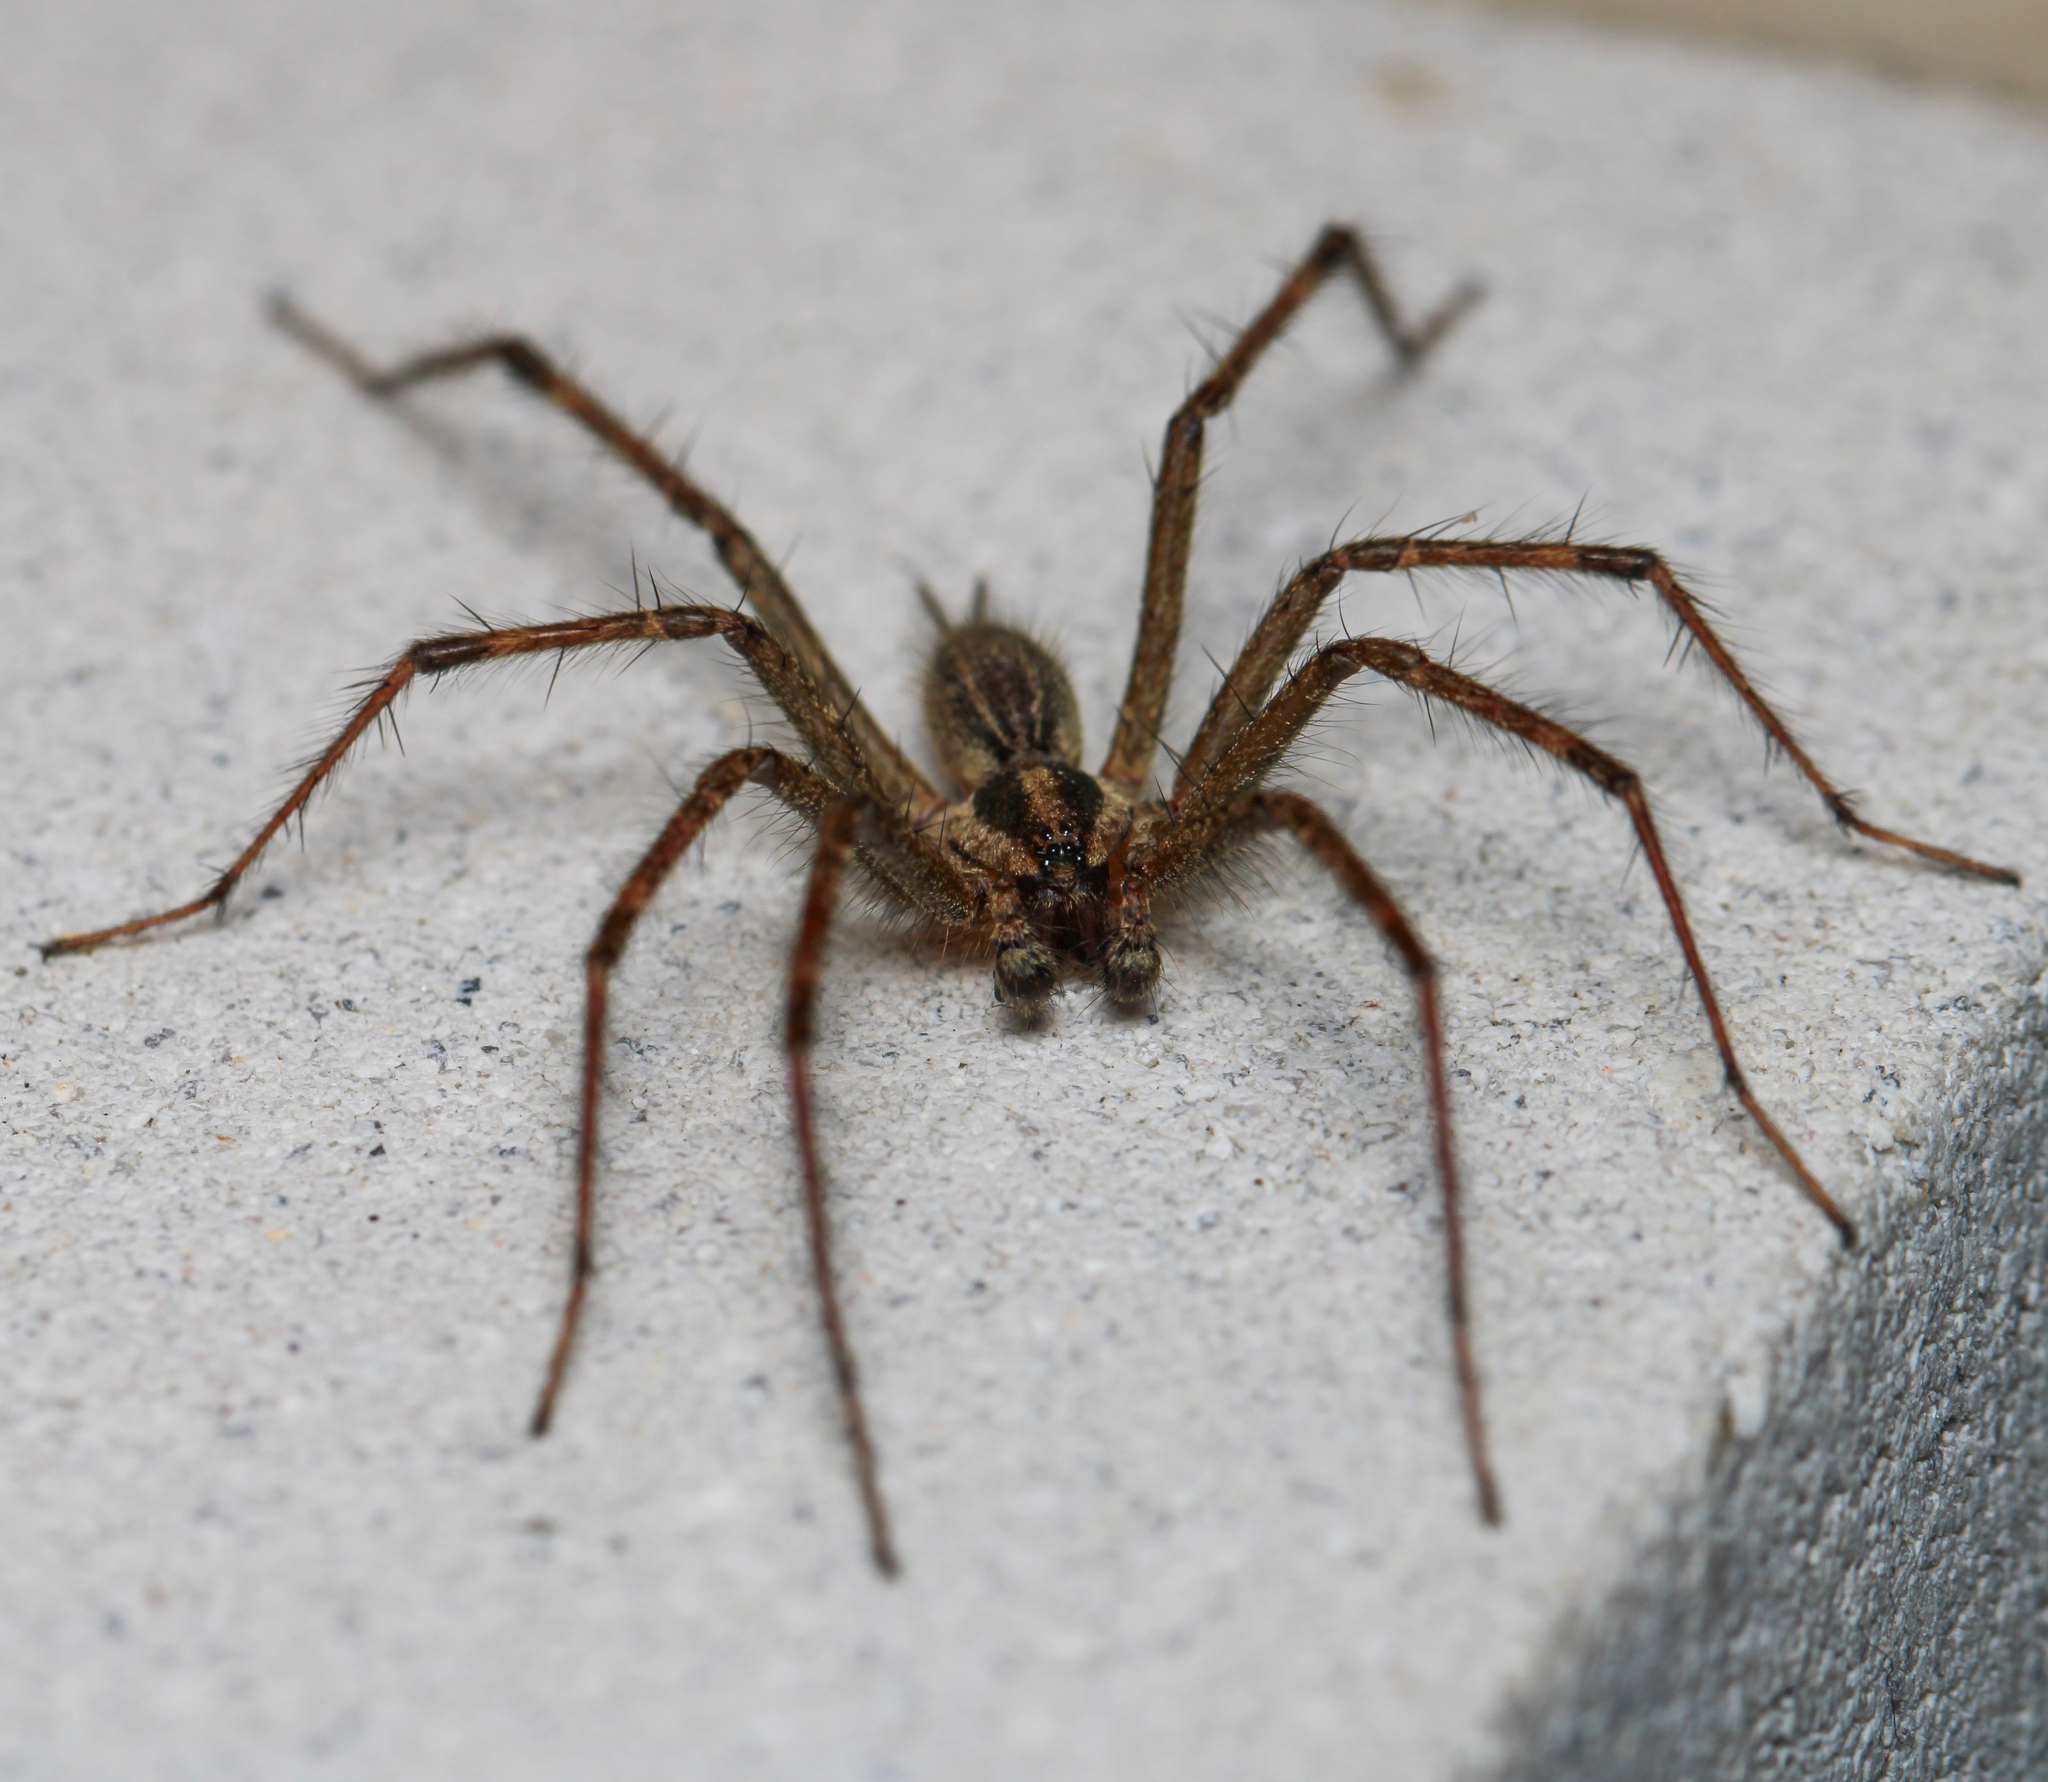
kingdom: Animalia
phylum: Arthropoda
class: Arachnida
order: Araneae
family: Agelenidae
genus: Agelenopsis
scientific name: Agelenopsis
